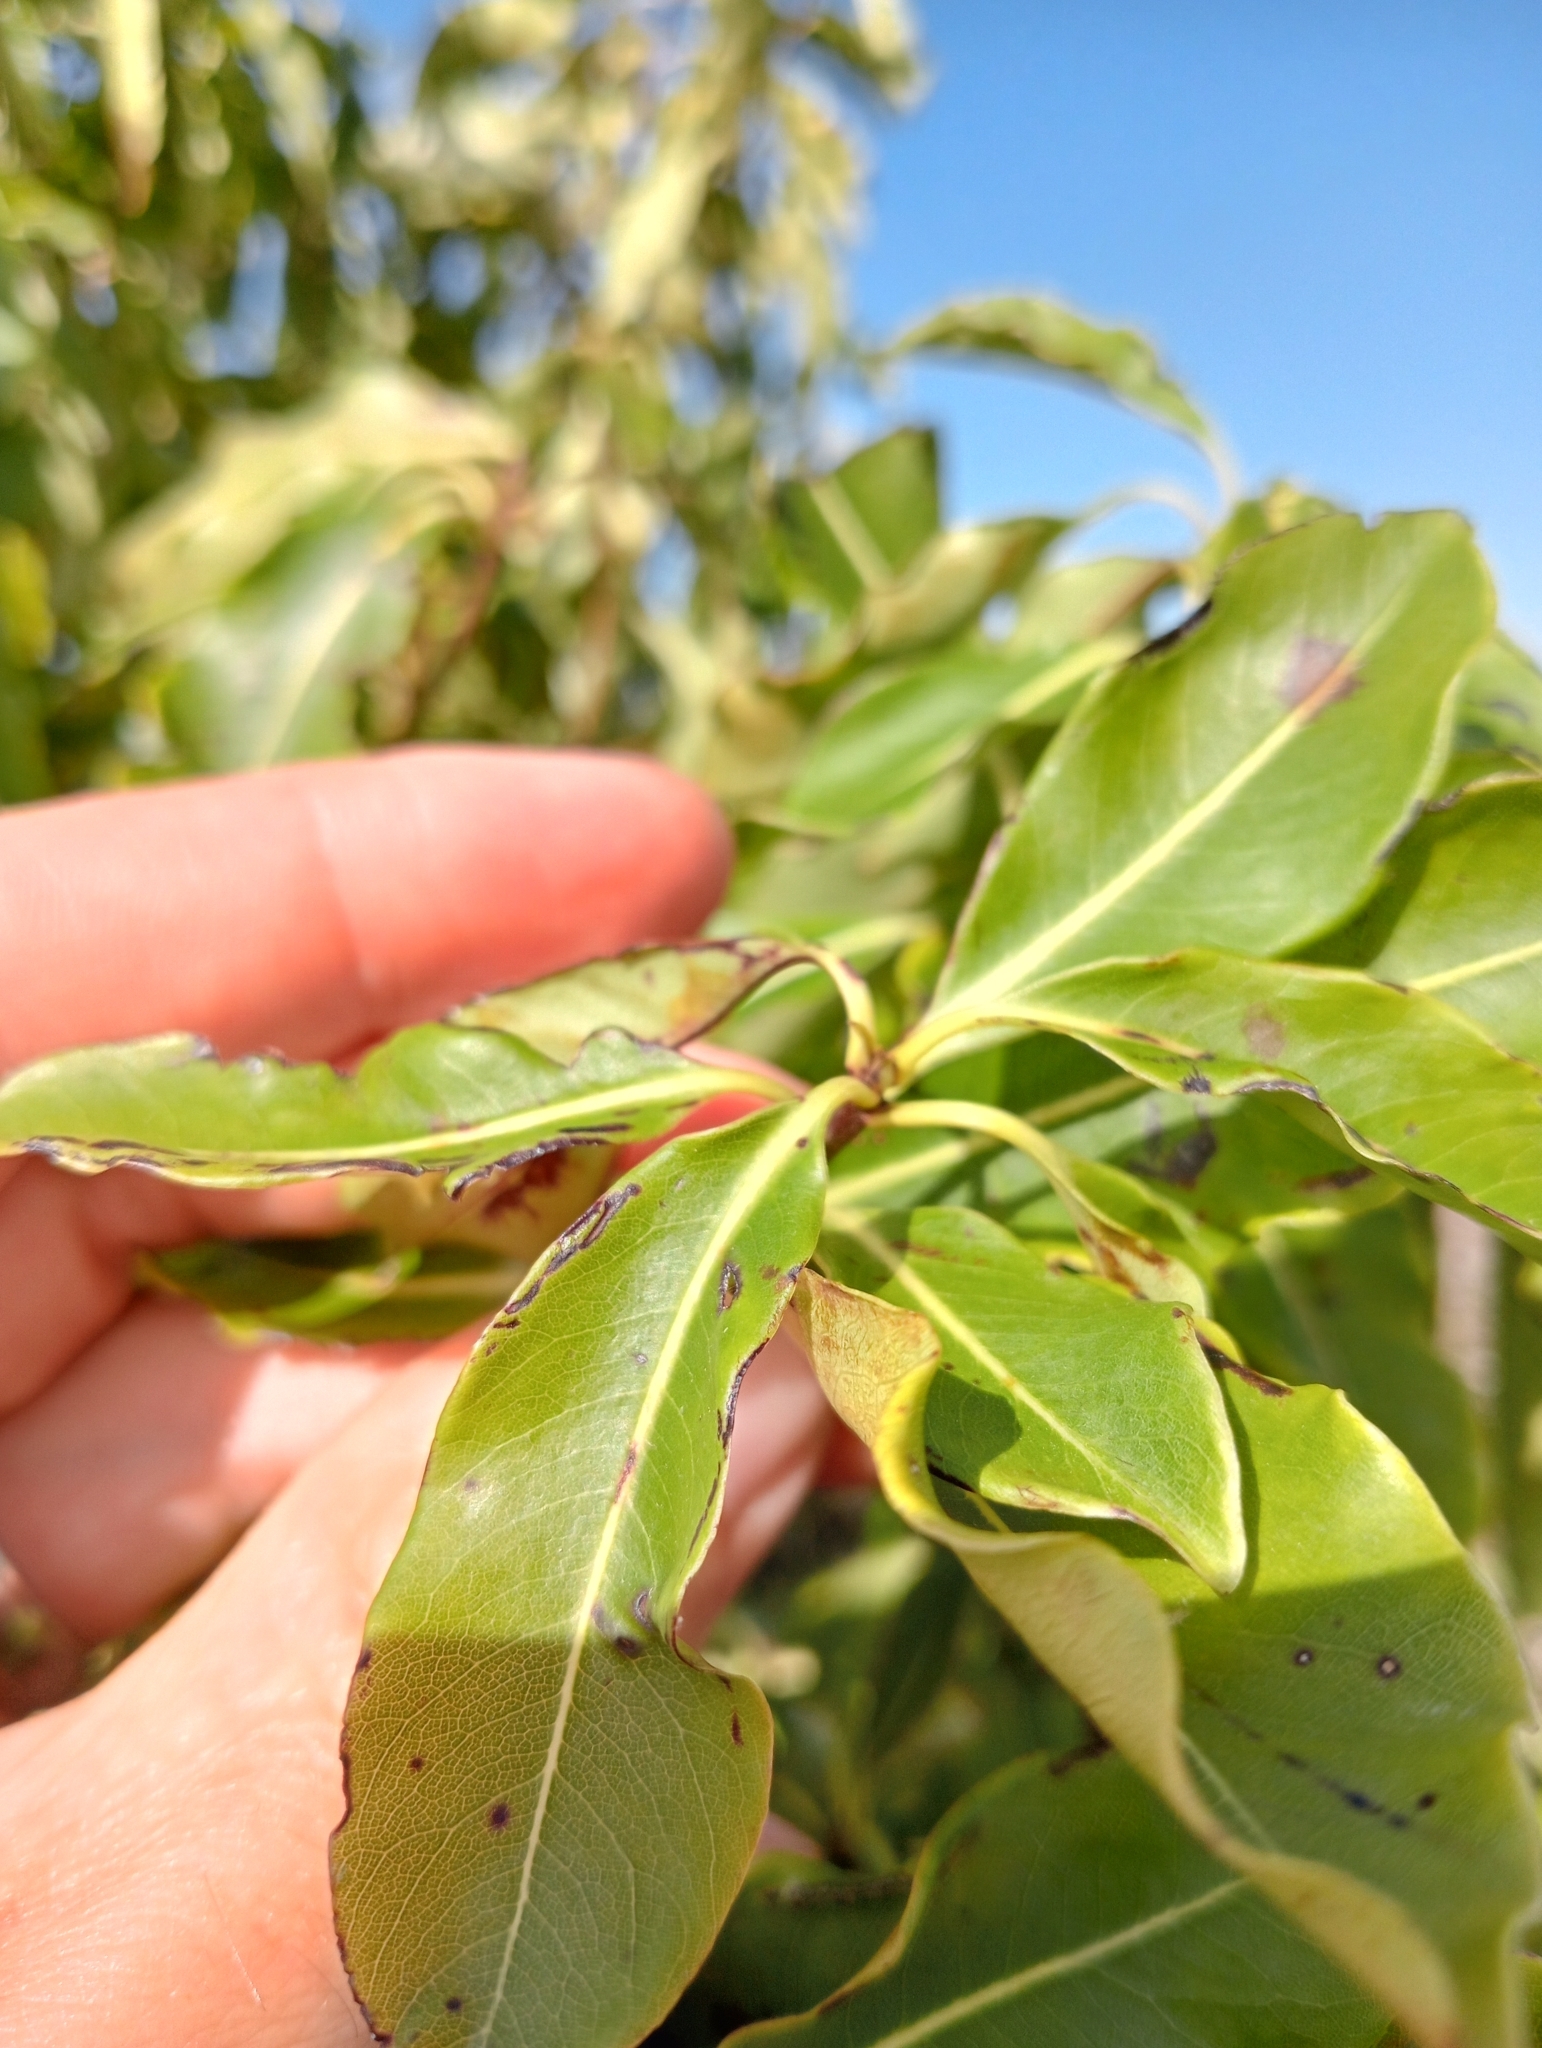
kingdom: Plantae
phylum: Tracheophyta
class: Magnoliopsida
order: Apiales
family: Pittosporaceae
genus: Pittosporum
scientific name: Pittosporum eugenioides
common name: Lemonwood
